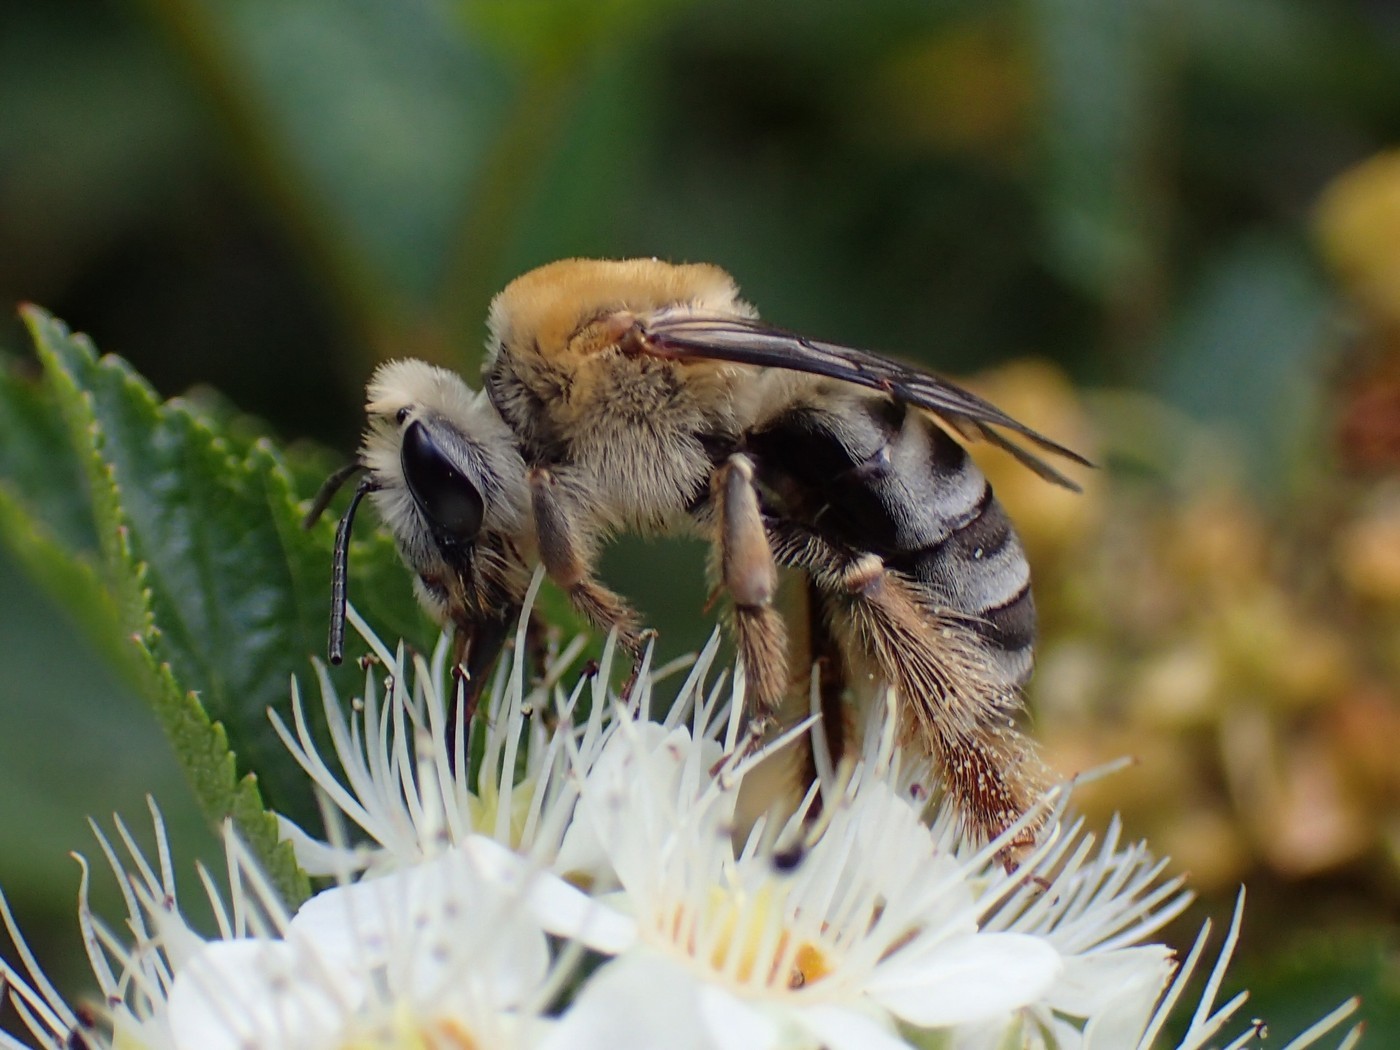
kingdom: Animalia
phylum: Arthropoda
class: Insecta
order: Hymenoptera
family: Apidae
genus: Peponapis
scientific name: Peponapis pruinosa
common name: Pruinose squash bee
